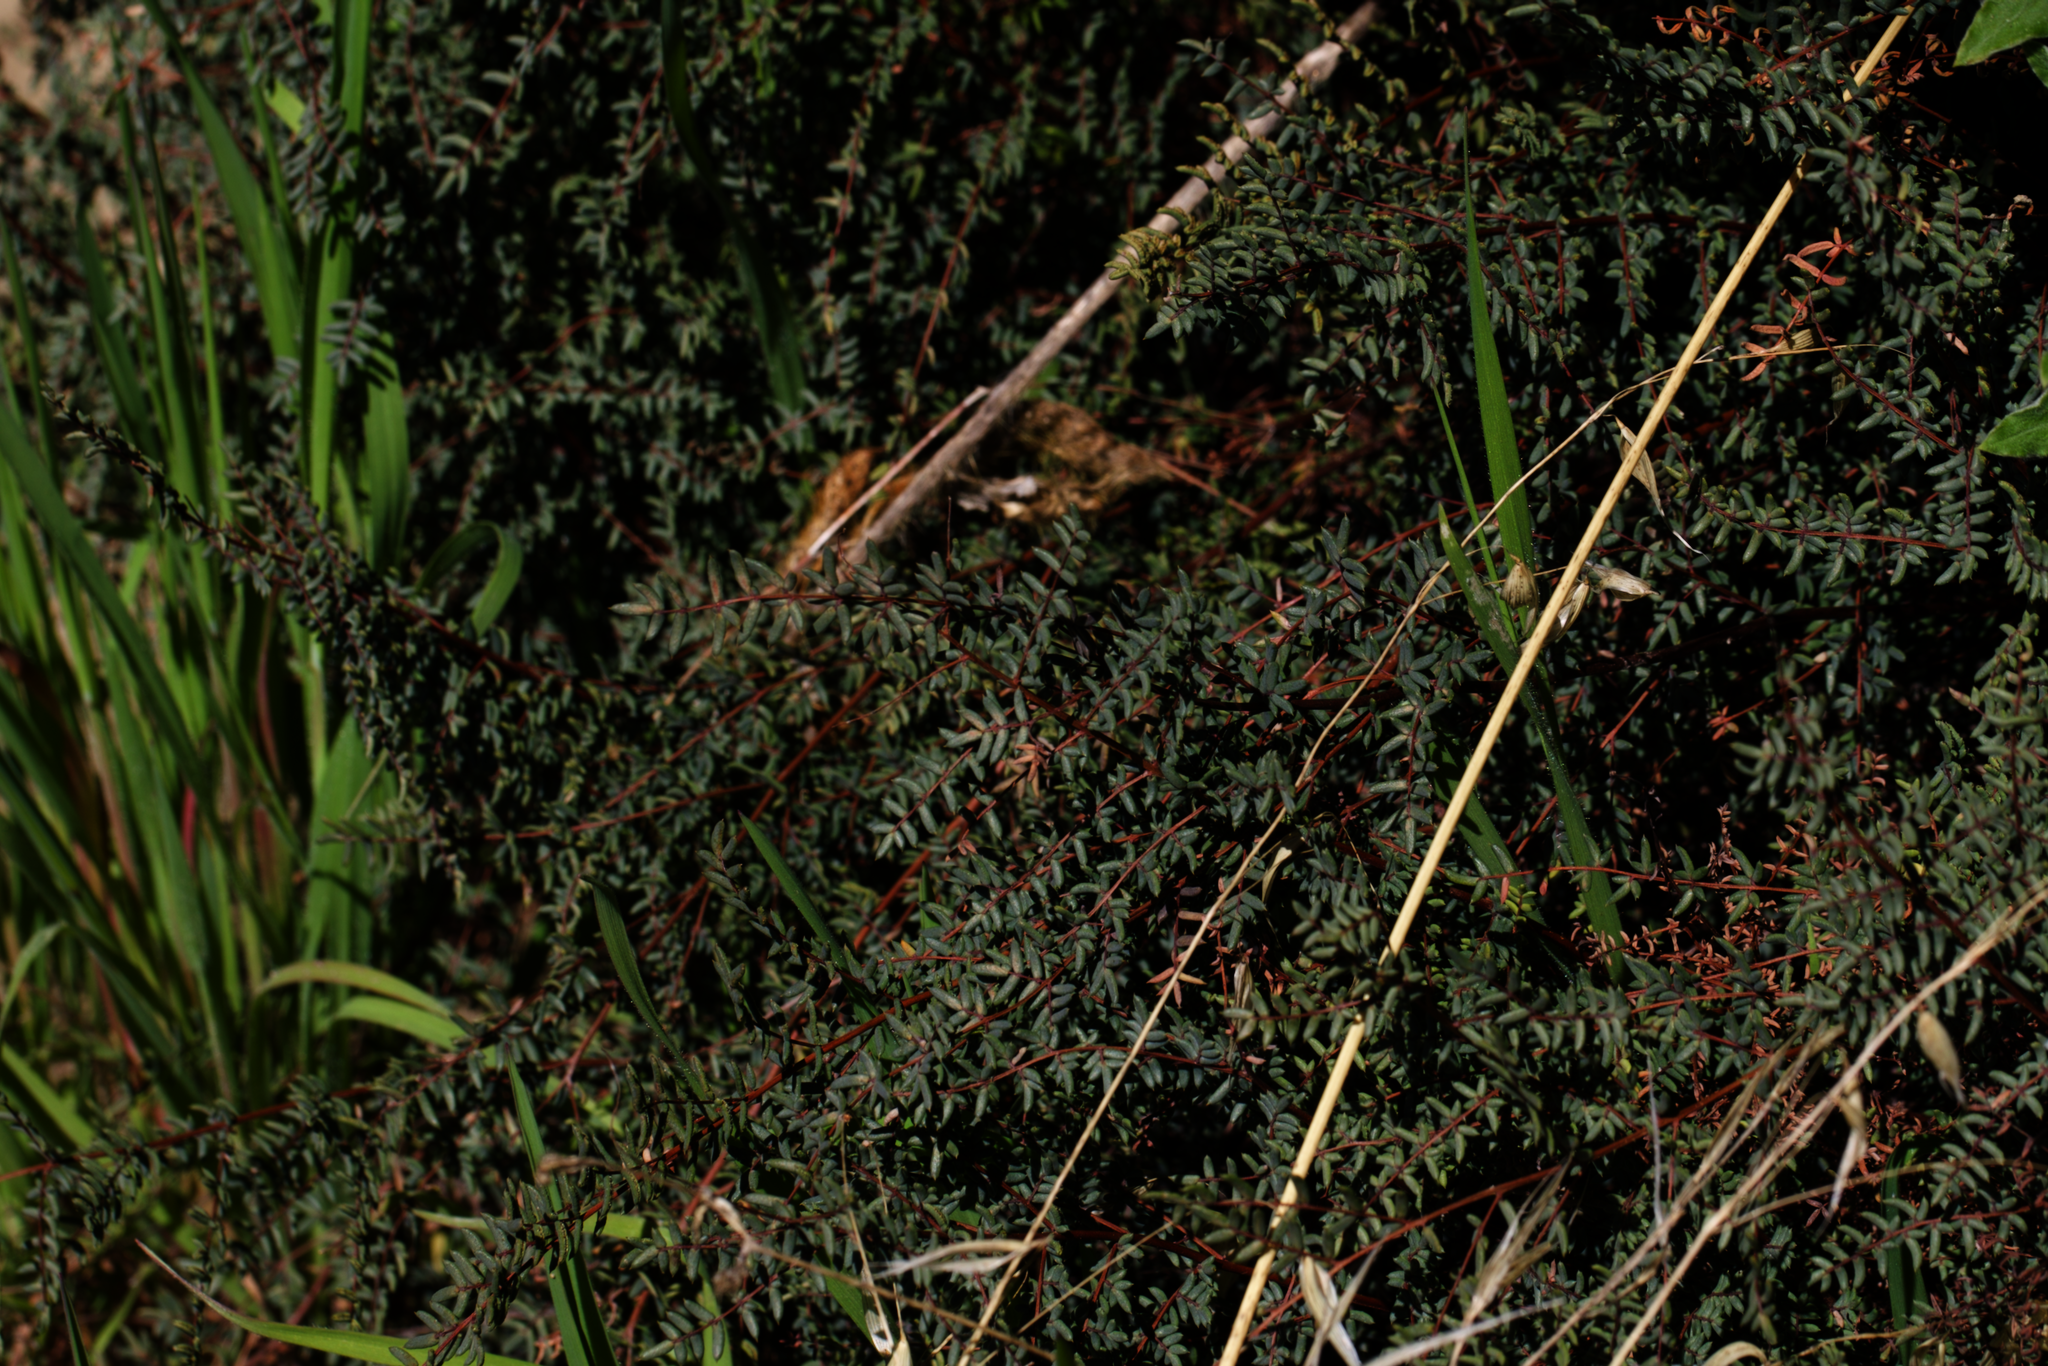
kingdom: Plantae
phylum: Tracheophyta
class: Polypodiopsida
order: Polypodiales
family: Pteridaceae
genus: Pellaea
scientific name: Pellaea mucronata
